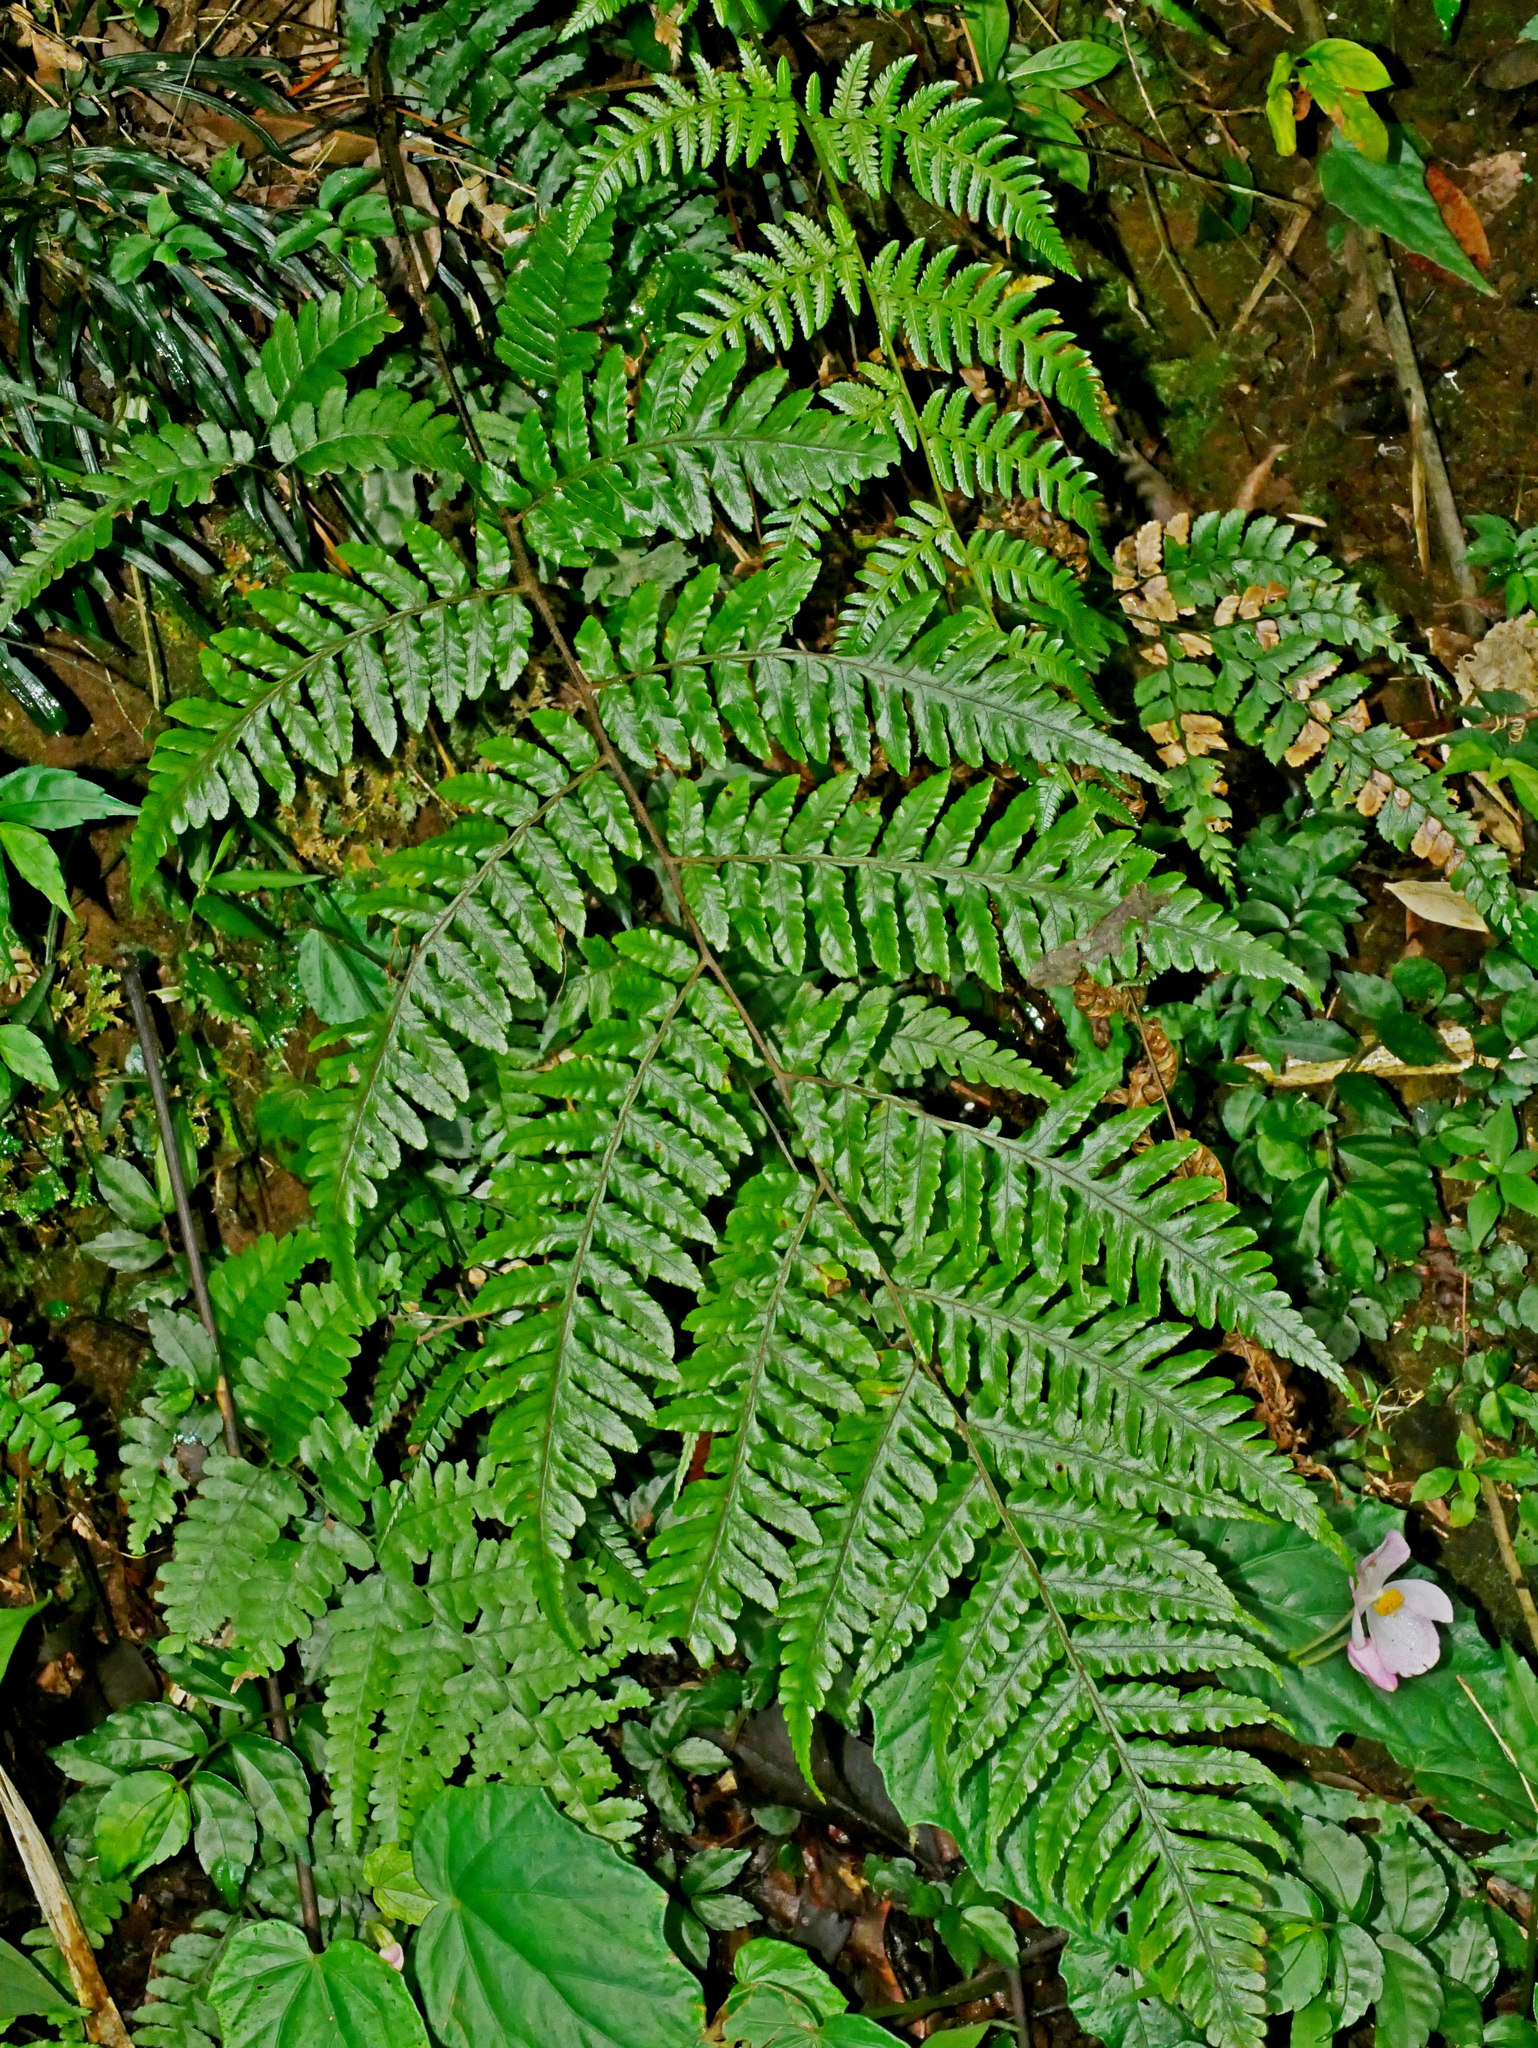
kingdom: Plantae
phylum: Tracheophyta
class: Polypodiopsida
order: Cyatheales
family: Cyatheaceae
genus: Gymnosphaera
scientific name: Gymnosphaera metteniana
